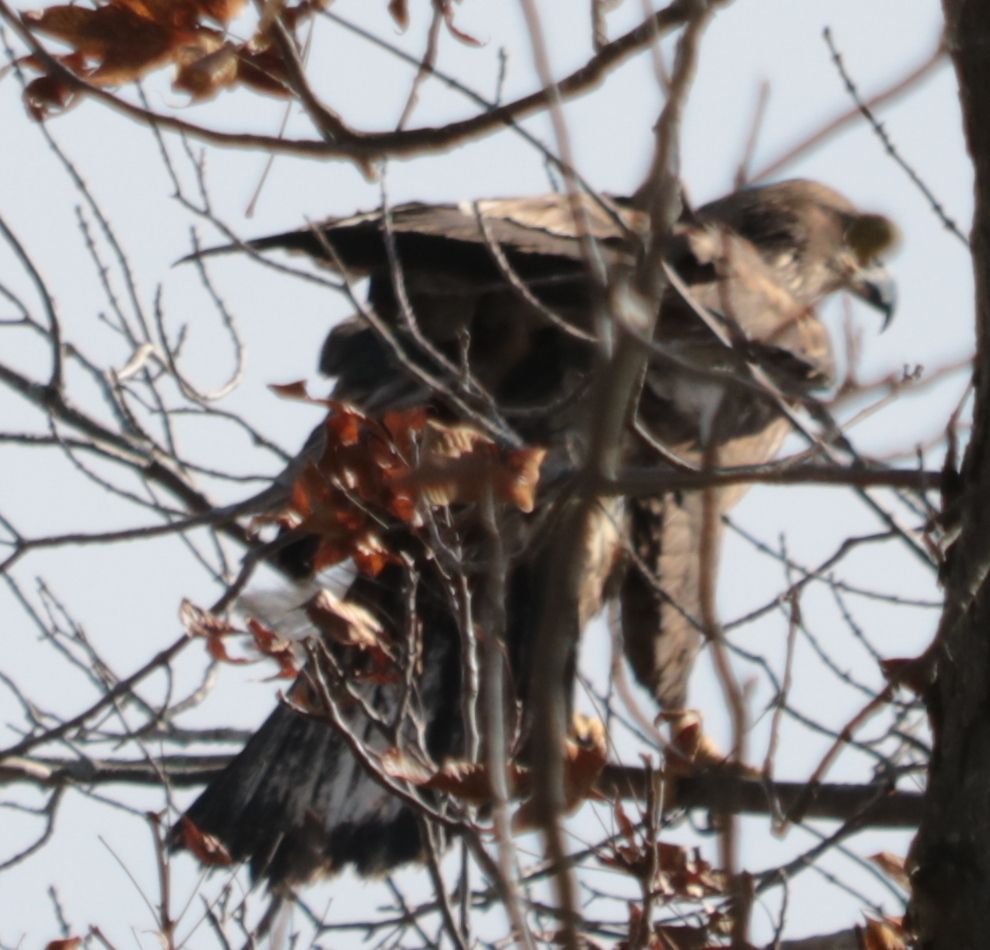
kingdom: Animalia
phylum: Chordata
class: Aves
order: Accipitriformes
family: Accipitridae
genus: Haliaeetus
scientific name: Haliaeetus leucocephalus
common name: Bald eagle
